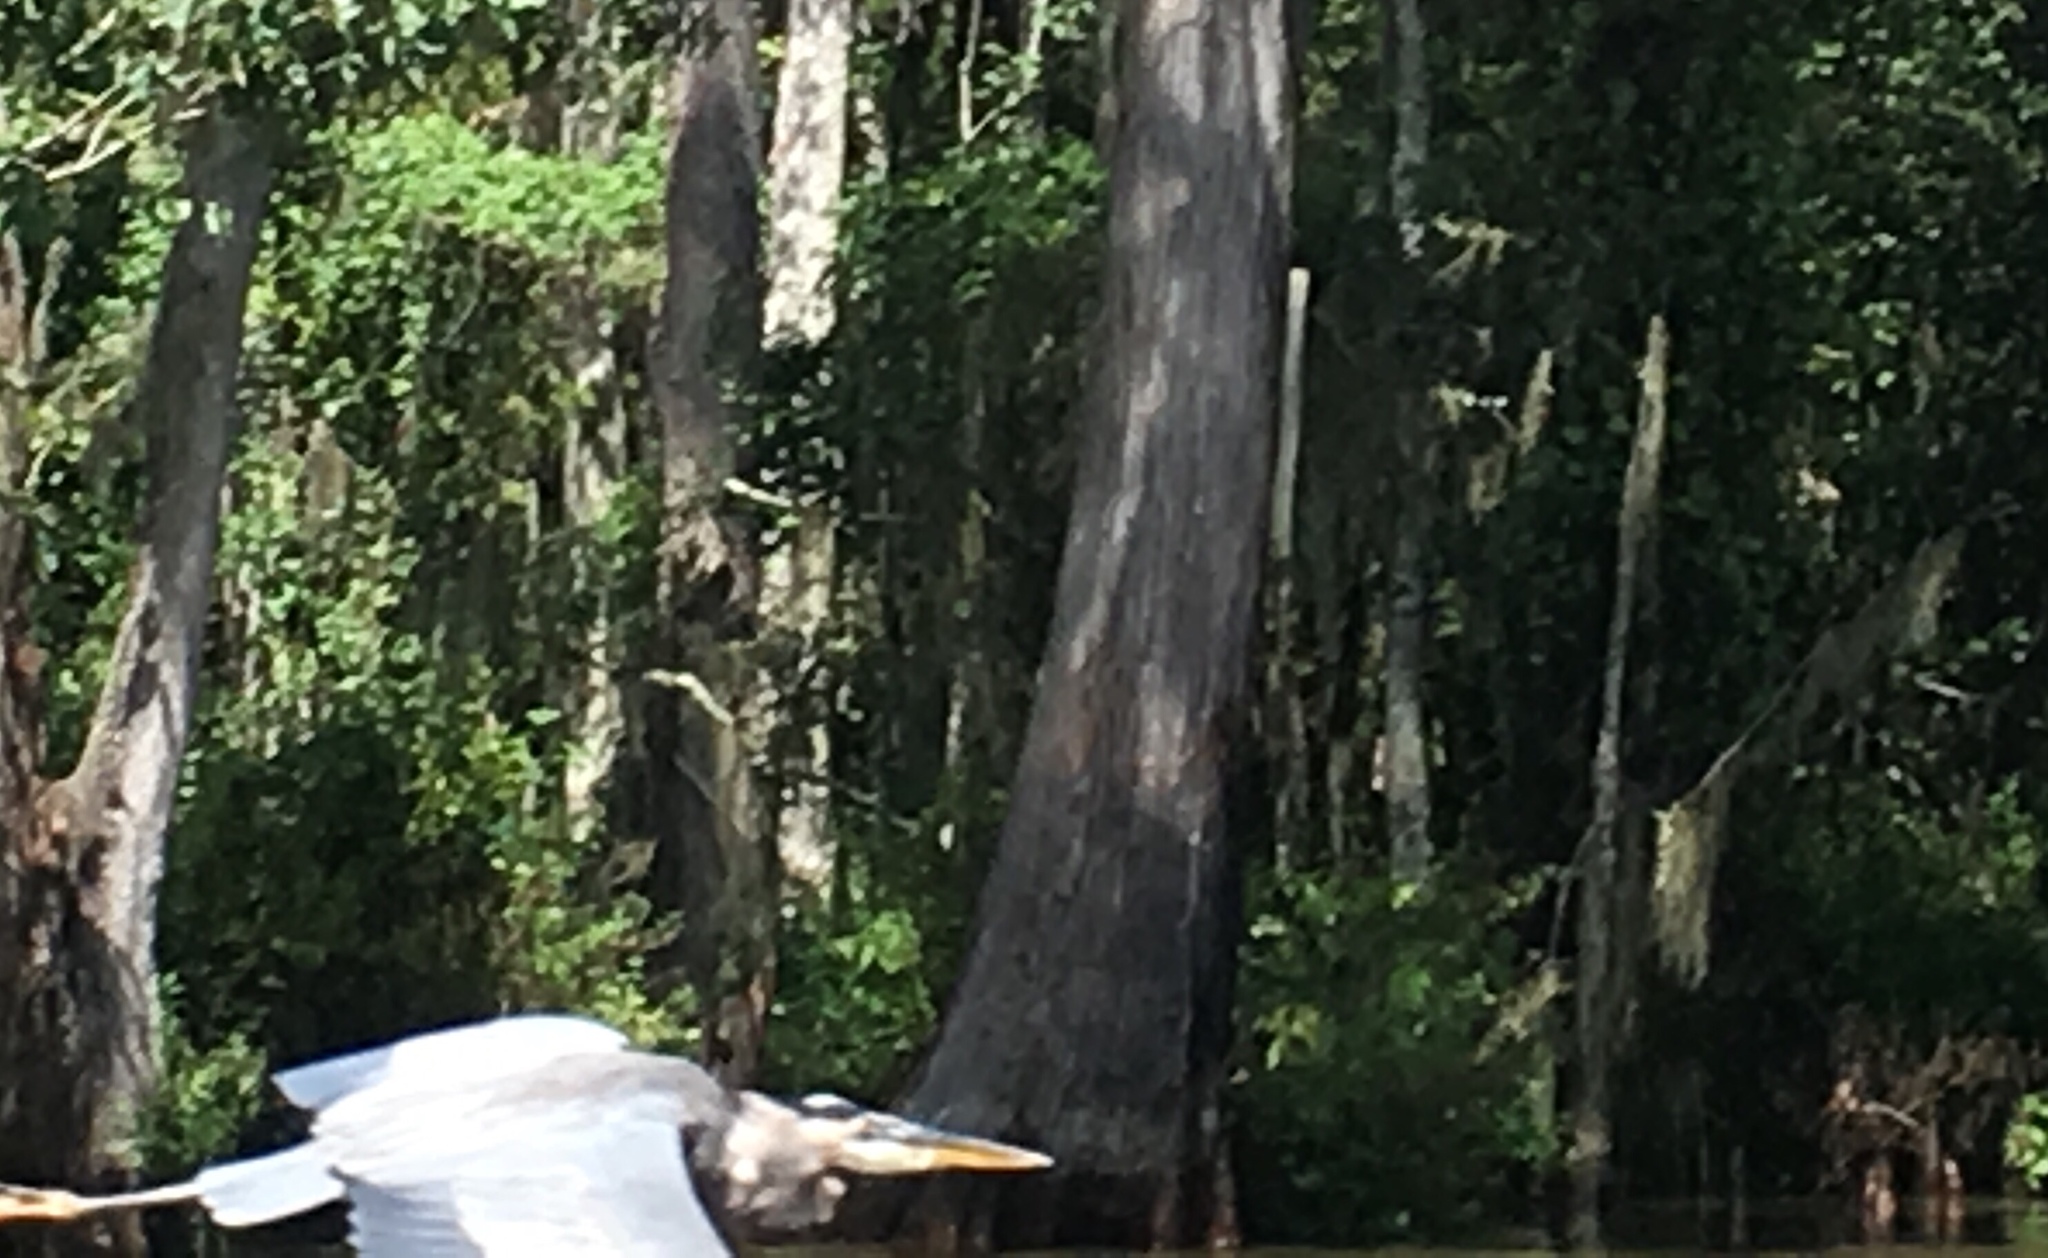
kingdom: Animalia
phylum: Chordata
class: Aves
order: Pelecaniformes
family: Ardeidae
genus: Ardea
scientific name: Ardea herodias
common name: Great blue heron
